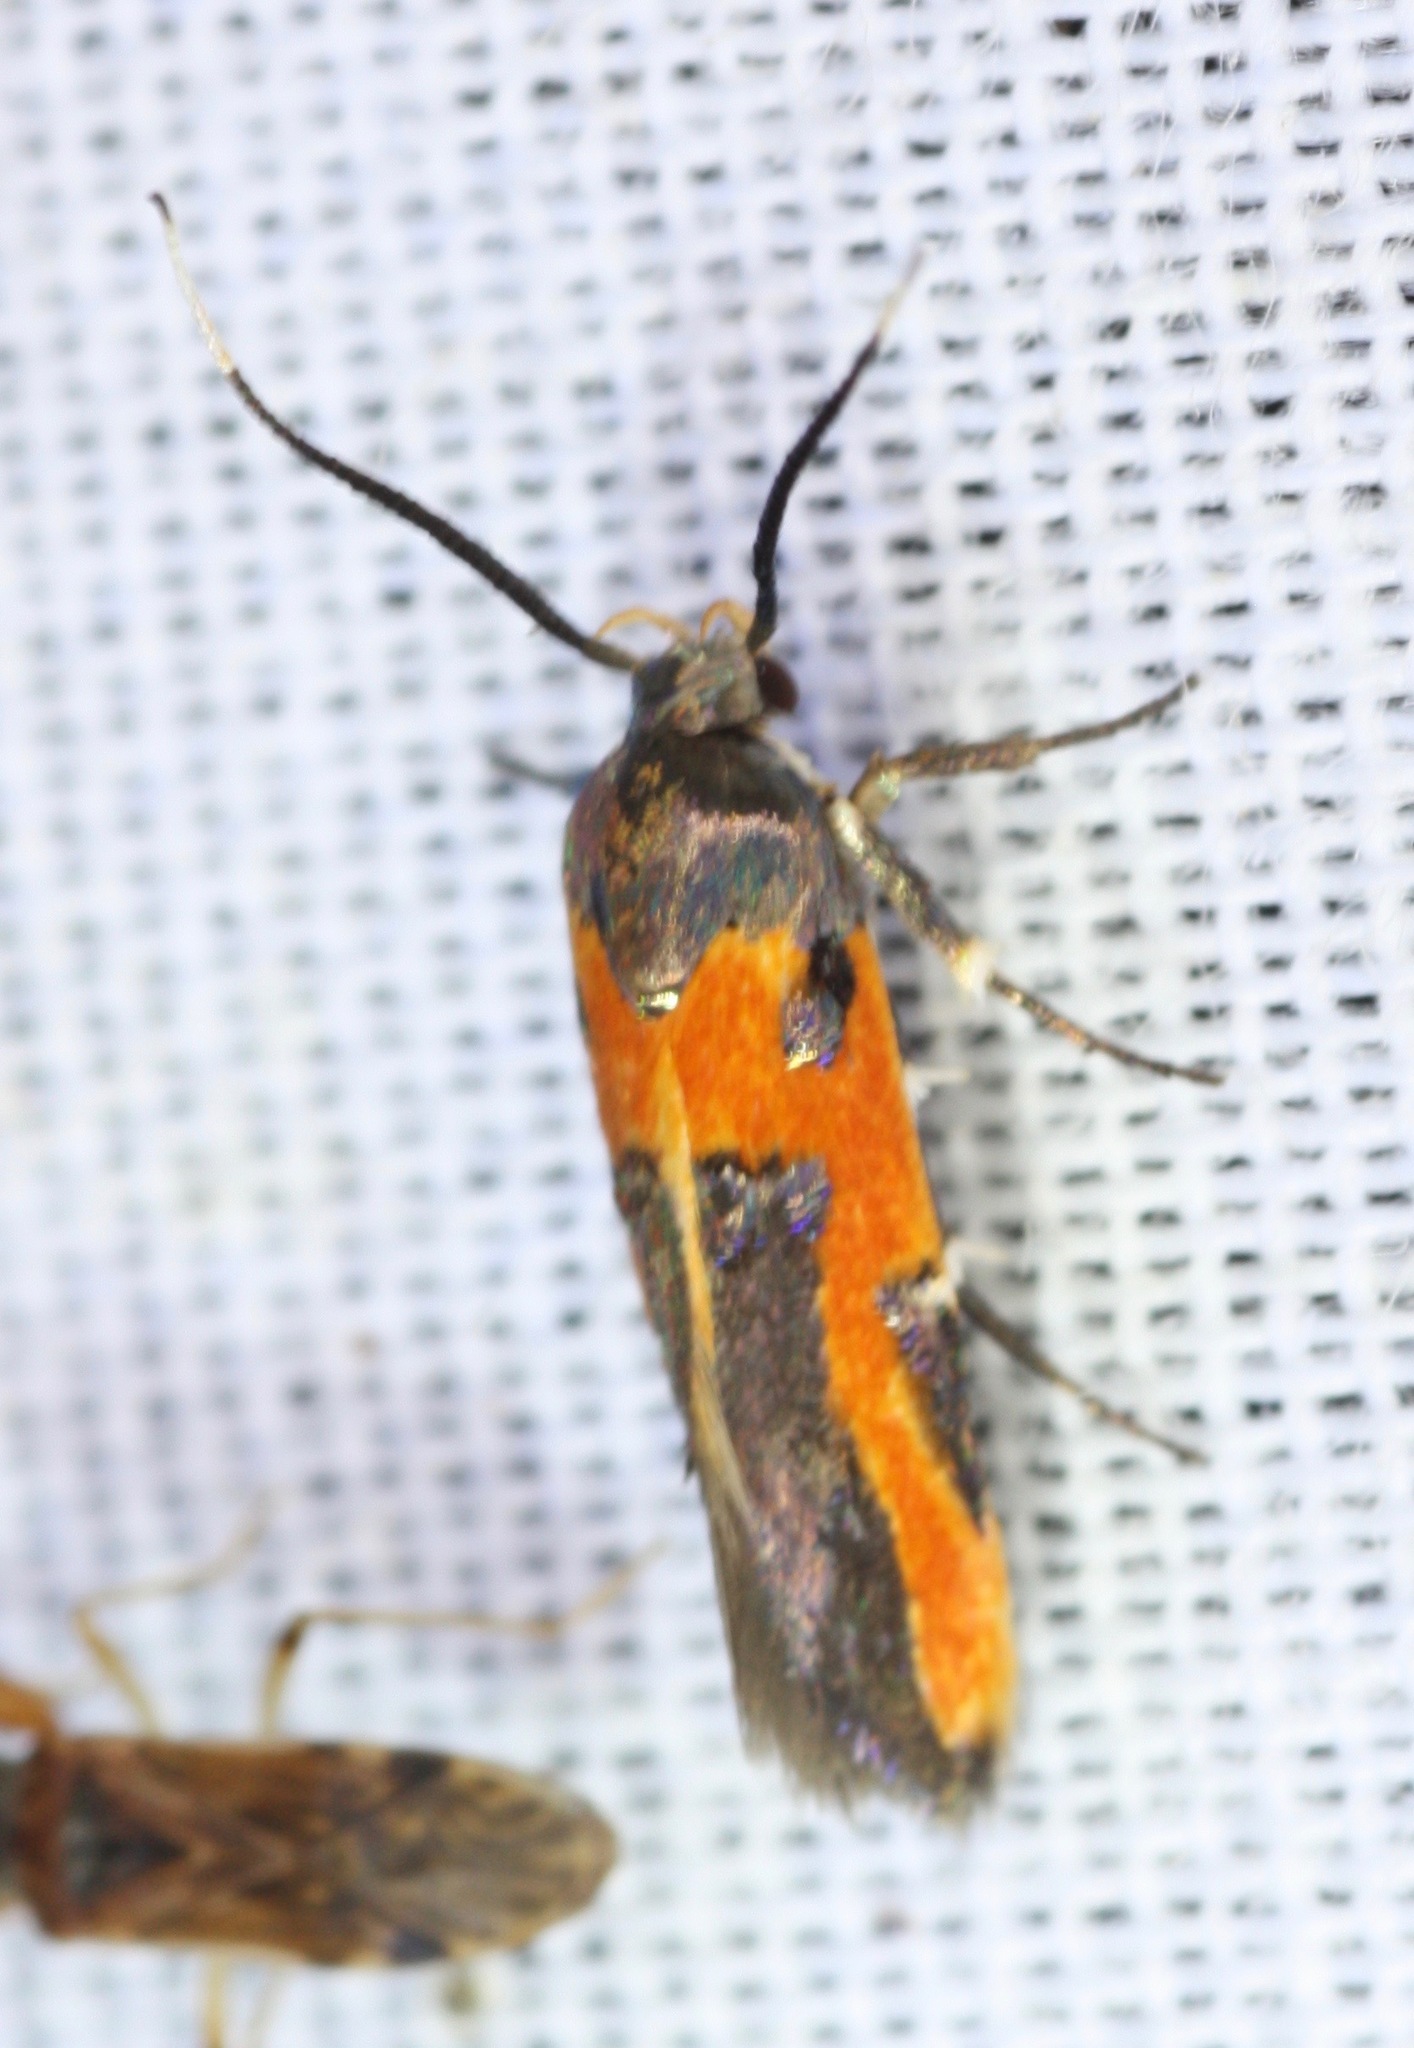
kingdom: Animalia
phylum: Arthropoda
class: Insecta
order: Lepidoptera
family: Cosmopterigidae
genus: Euclemensia
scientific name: Euclemensia bassettella
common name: Kermes scale moth
